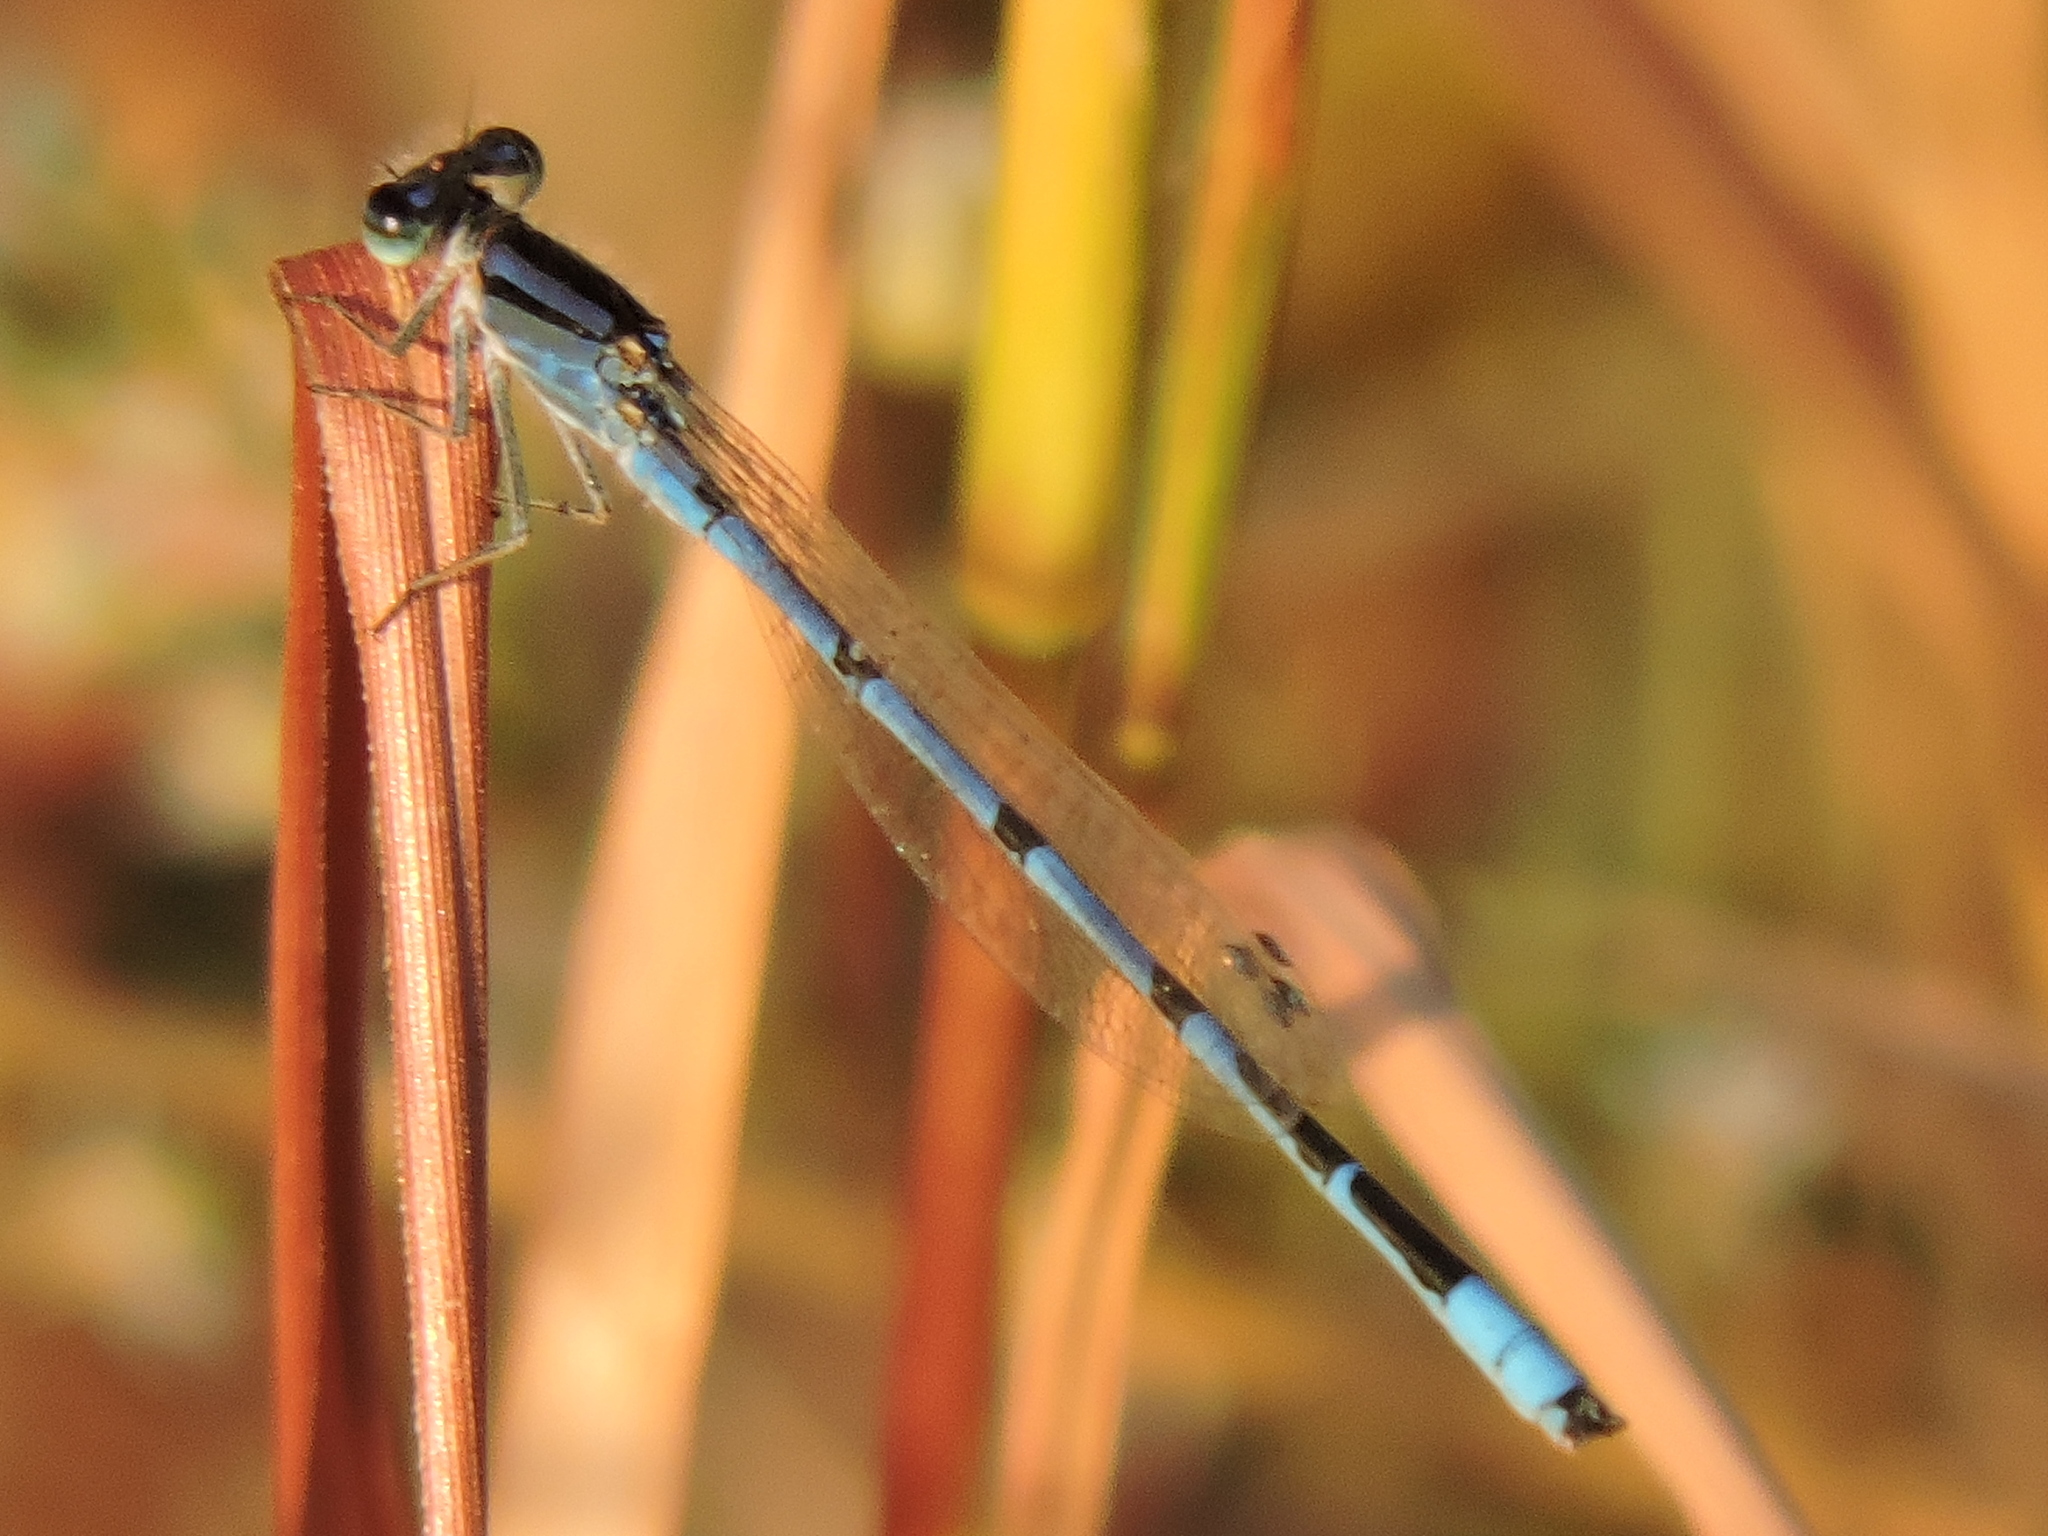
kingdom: Animalia
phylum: Arthropoda
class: Insecta
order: Odonata
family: Coenagrionidae
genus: Enallagma
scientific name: Enallagma civile
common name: Damselfly
